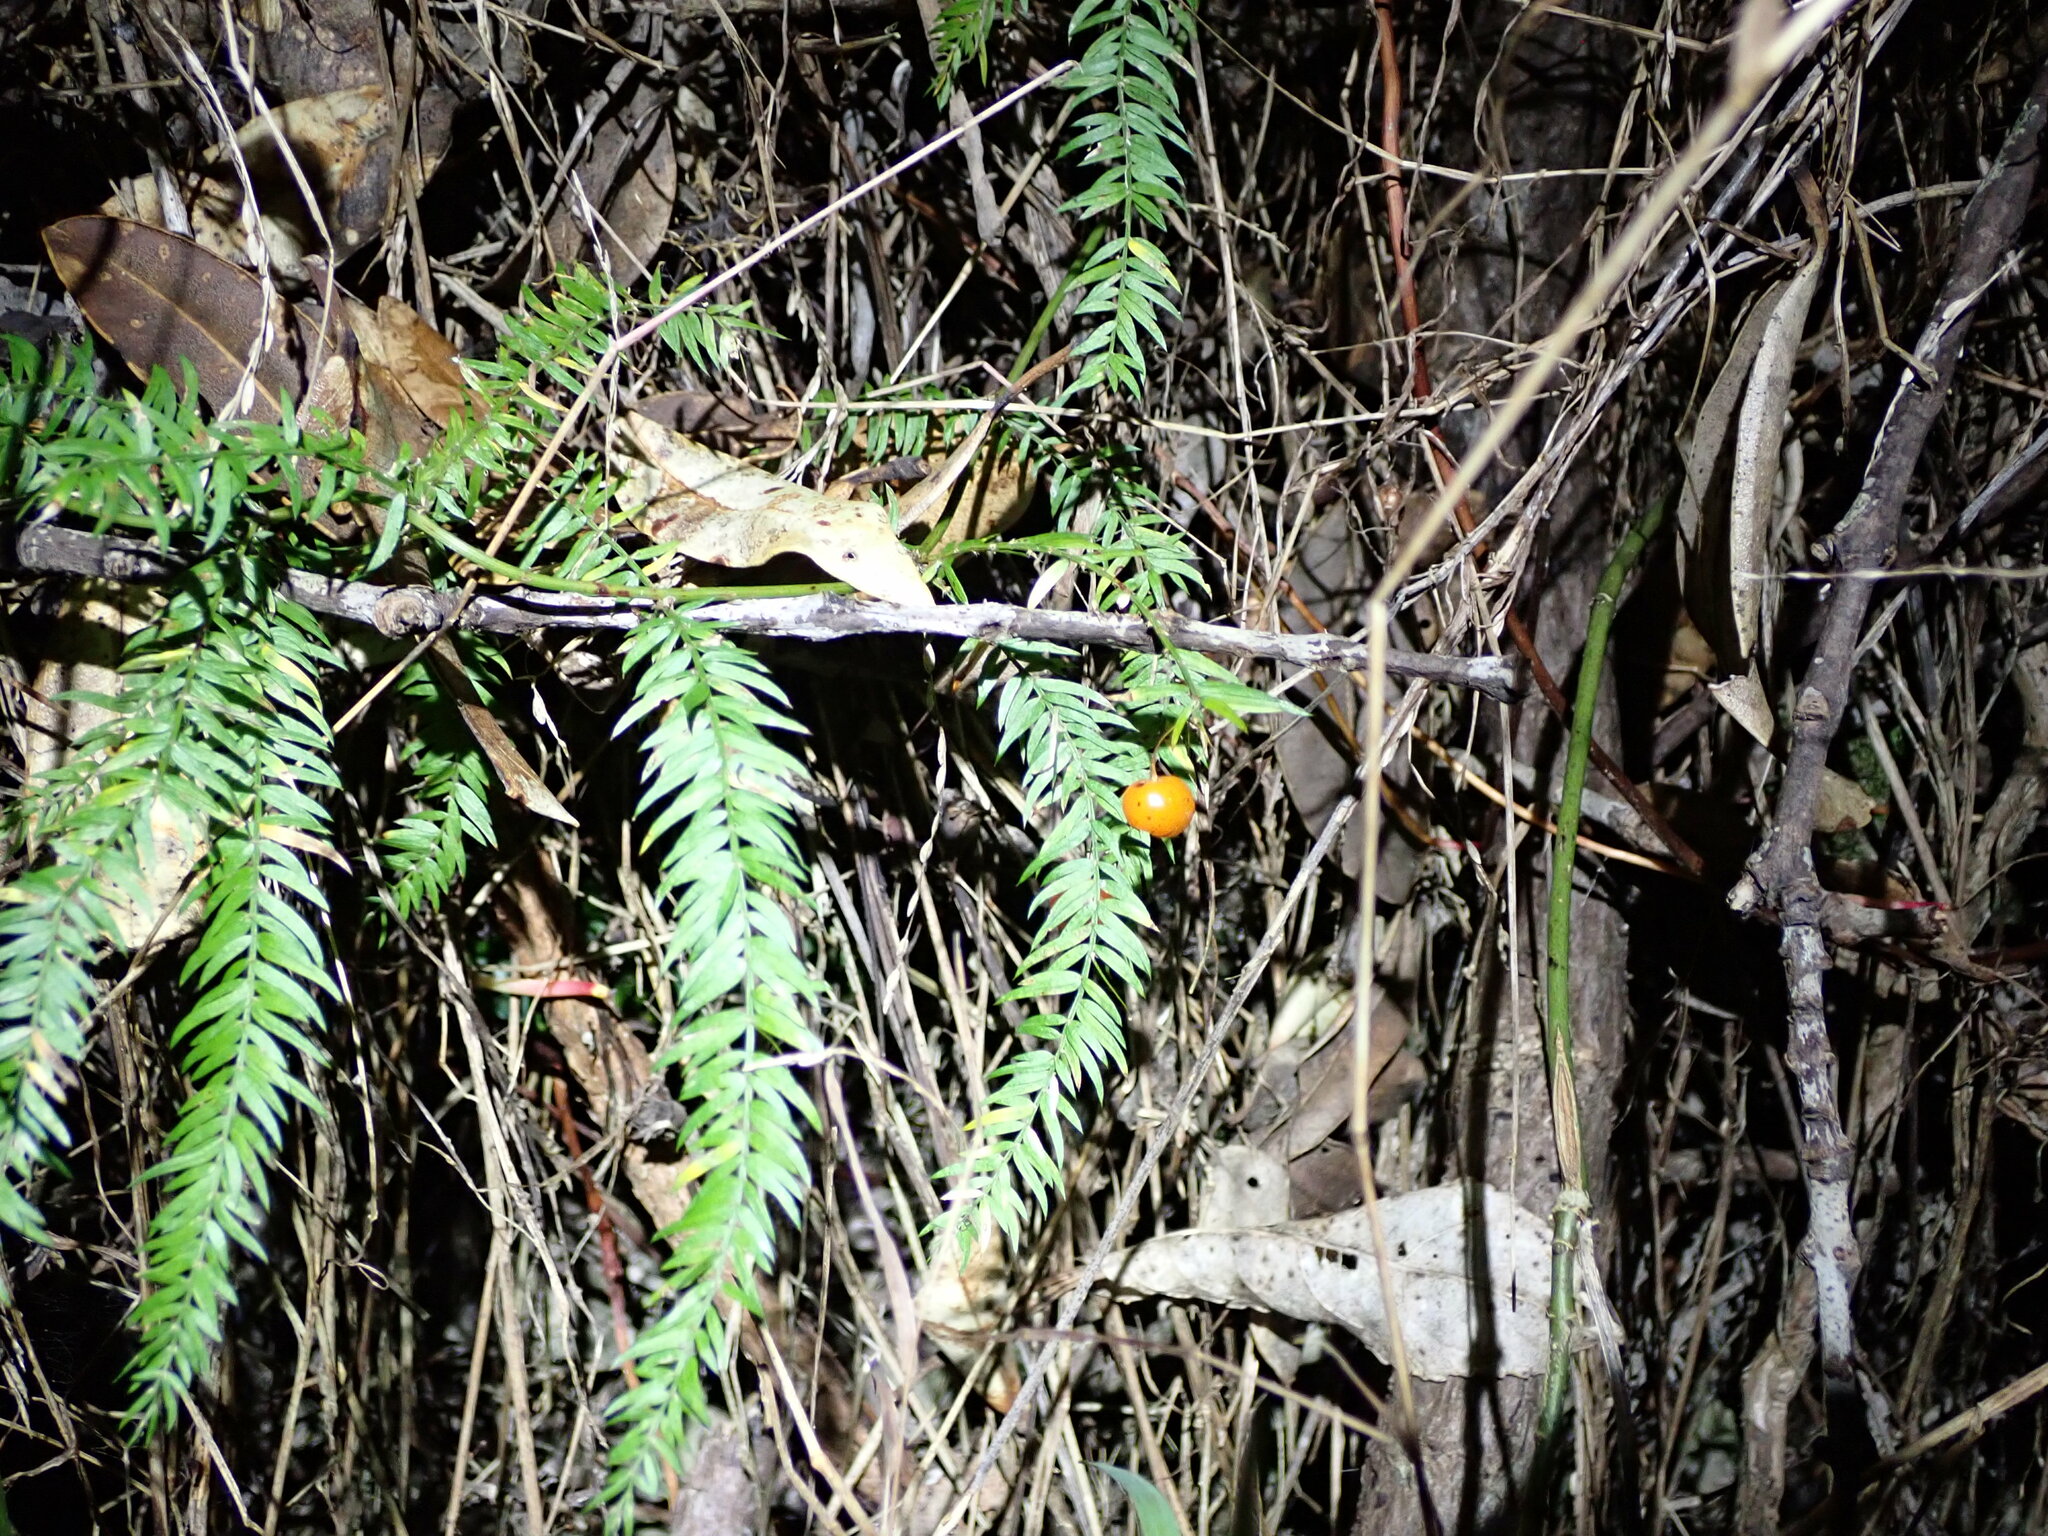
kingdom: Plantae
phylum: Tracheophyta
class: Liliopsida
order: Asparagales
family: Asparagaceae
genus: Asparagus
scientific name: Asparagus scandens
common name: Asparagus-fern
